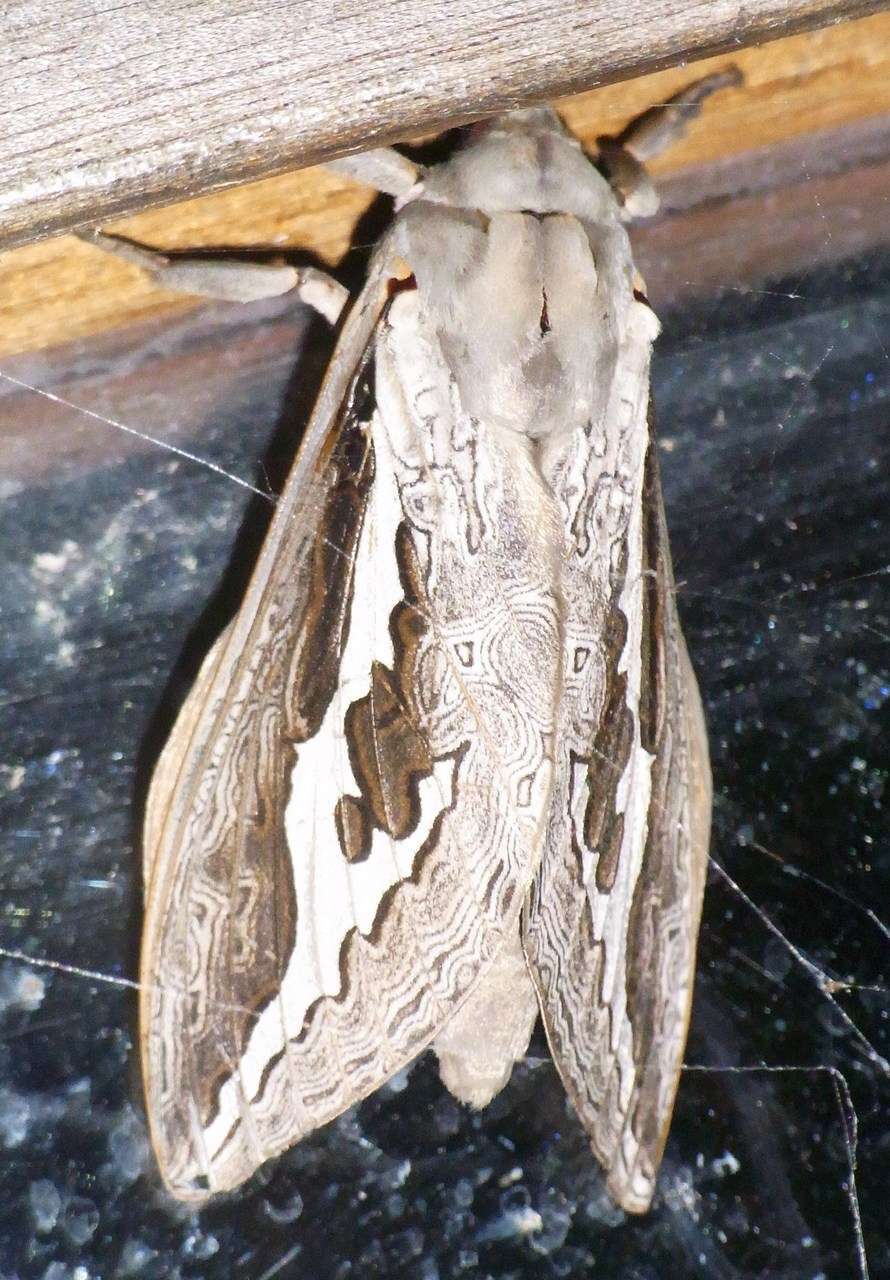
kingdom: Animalia
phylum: Arthropoda
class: Insecta
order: Lepidoptera
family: Hepialidae
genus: Abantiades
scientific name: Abantiades labyrinthicus
